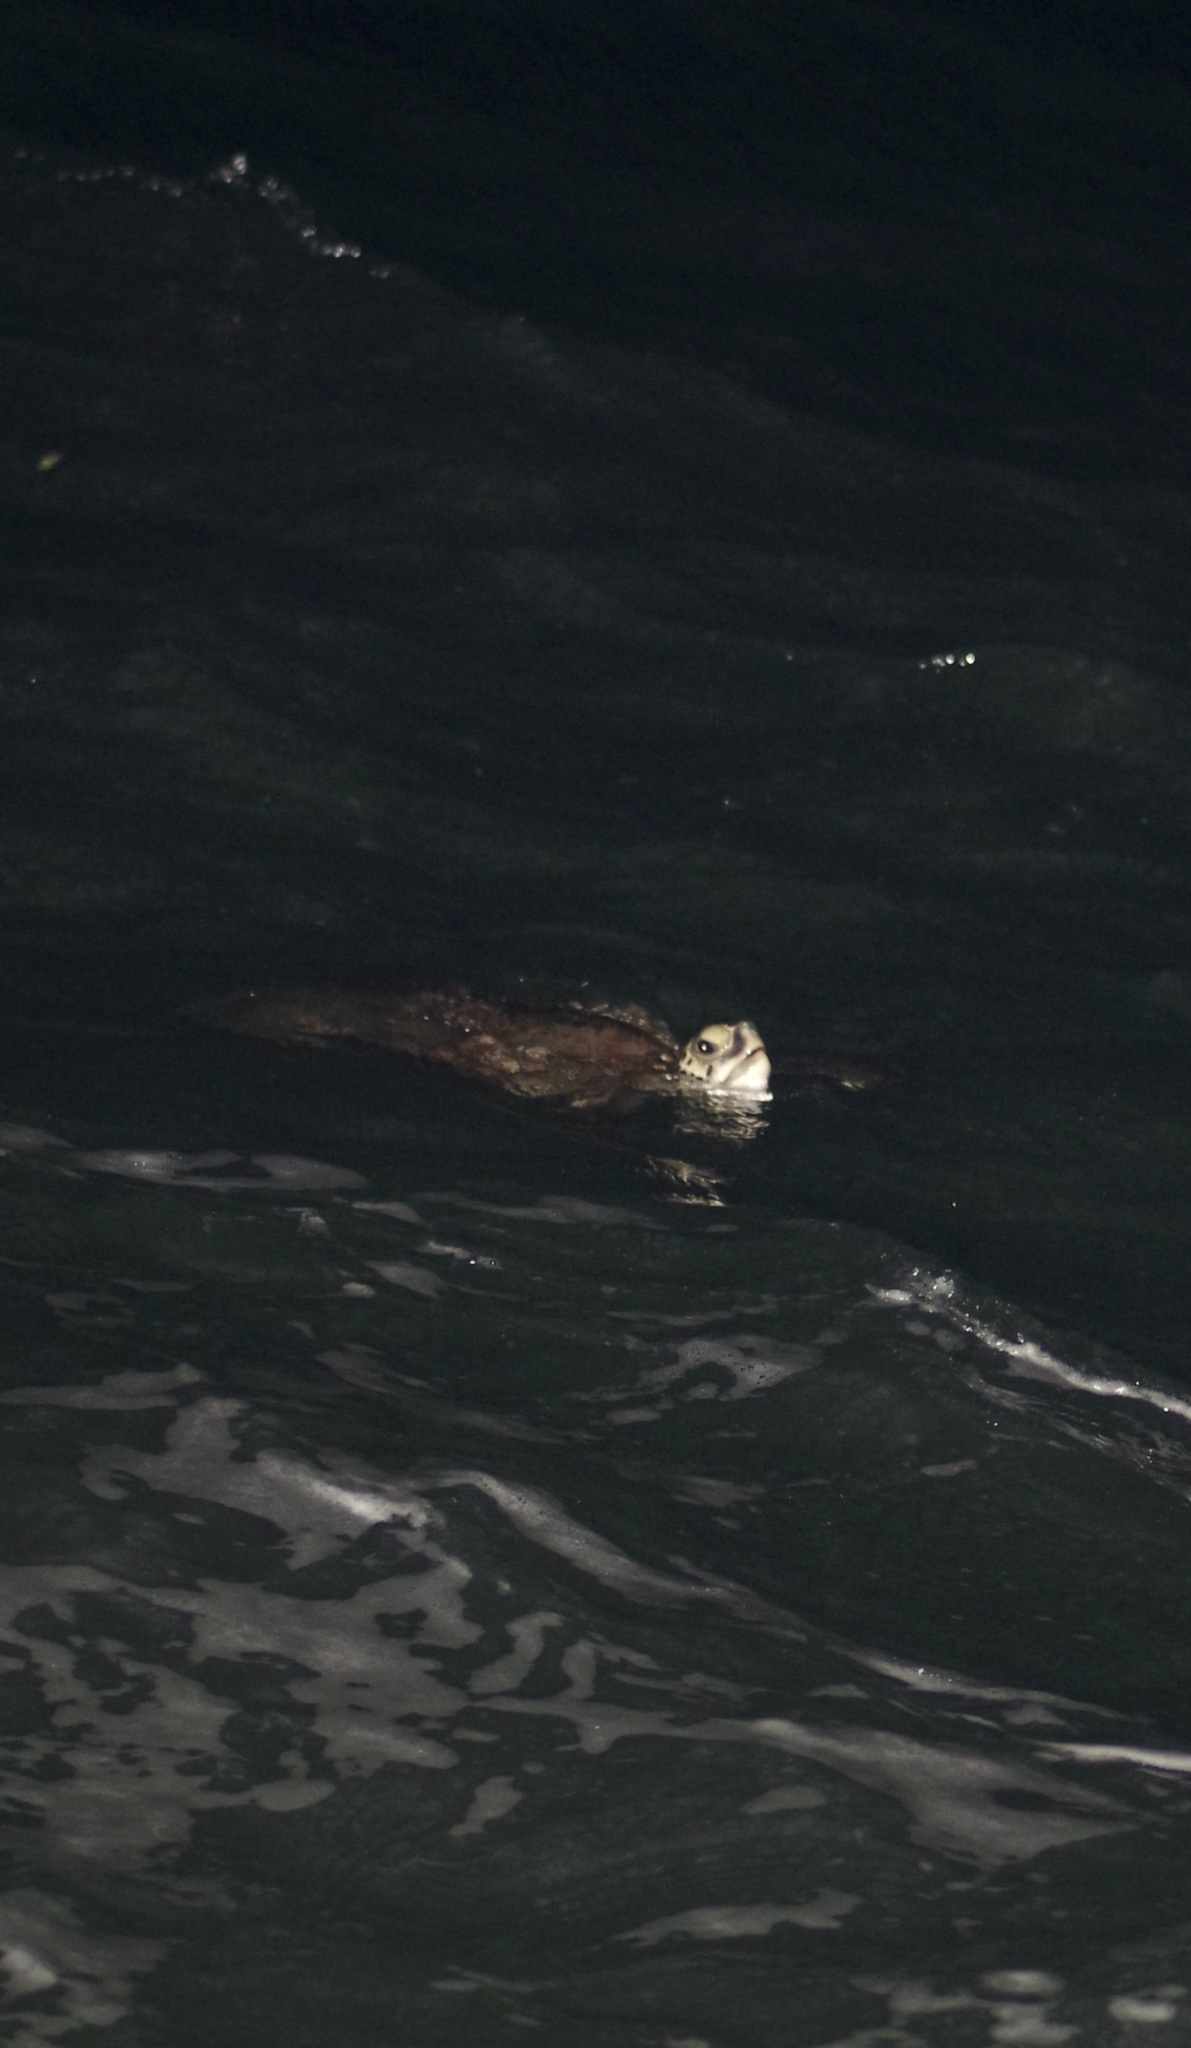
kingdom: Animalia
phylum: Chordata
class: Testudines
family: Cheloniidae
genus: Chelonia
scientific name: Chelonia mydas
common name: Green turtle
